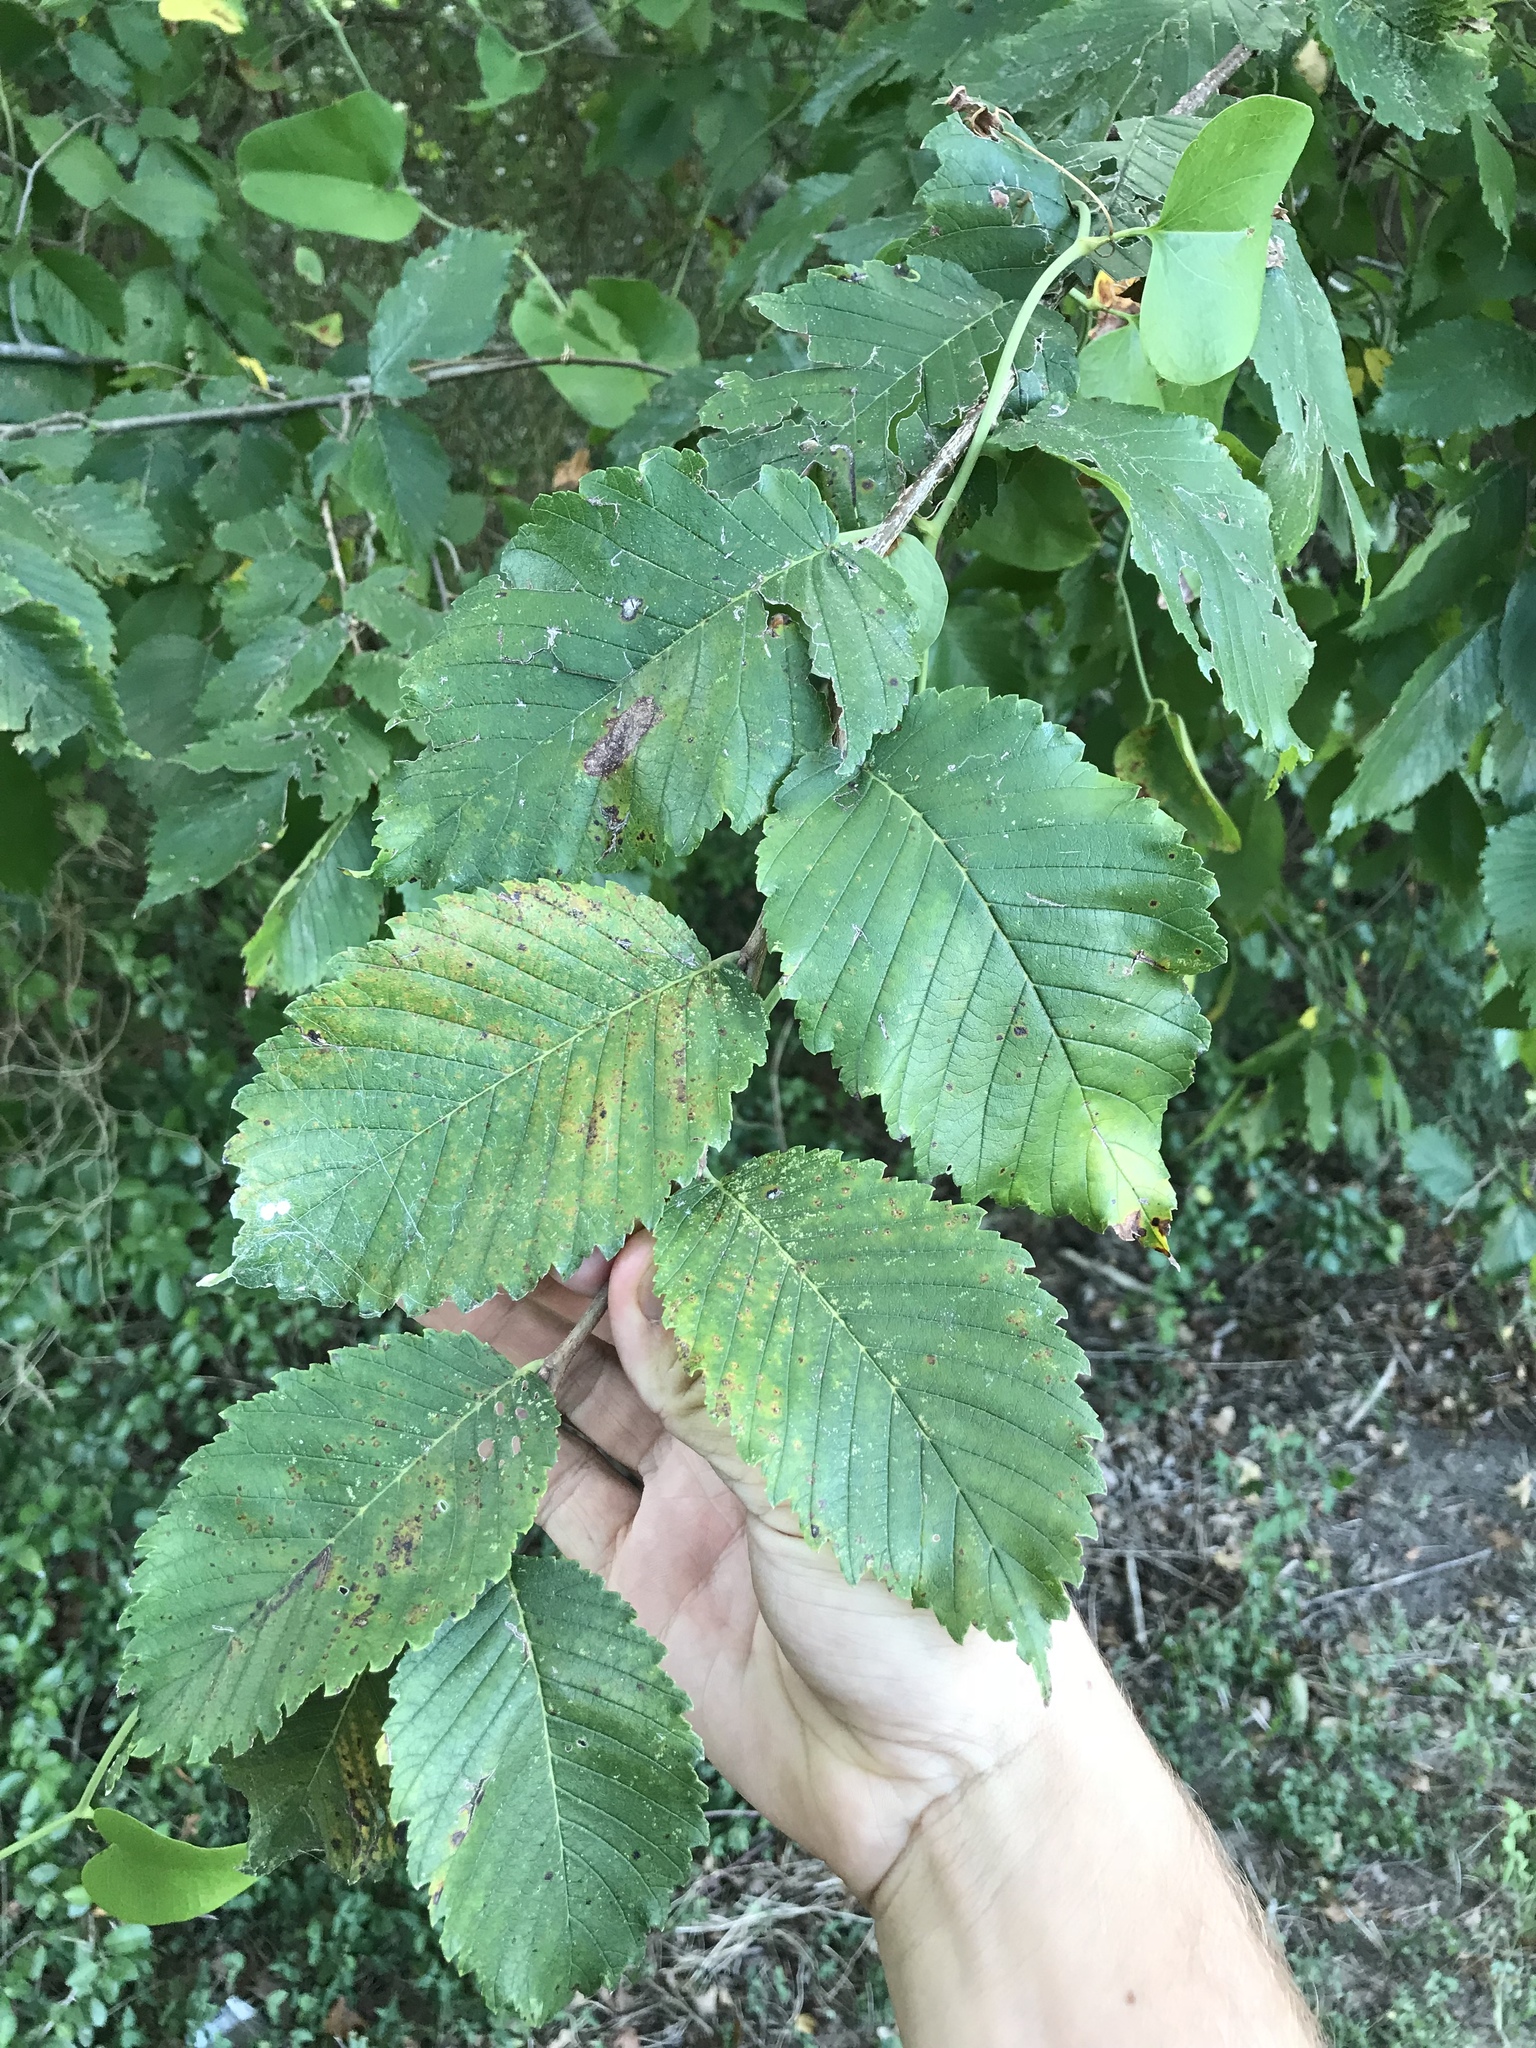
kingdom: Plantae
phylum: Tracheophyta
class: Magnoliopsida
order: Rosales
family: Ulmaceae
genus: Ulmus
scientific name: Ulmus americana
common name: American elm
